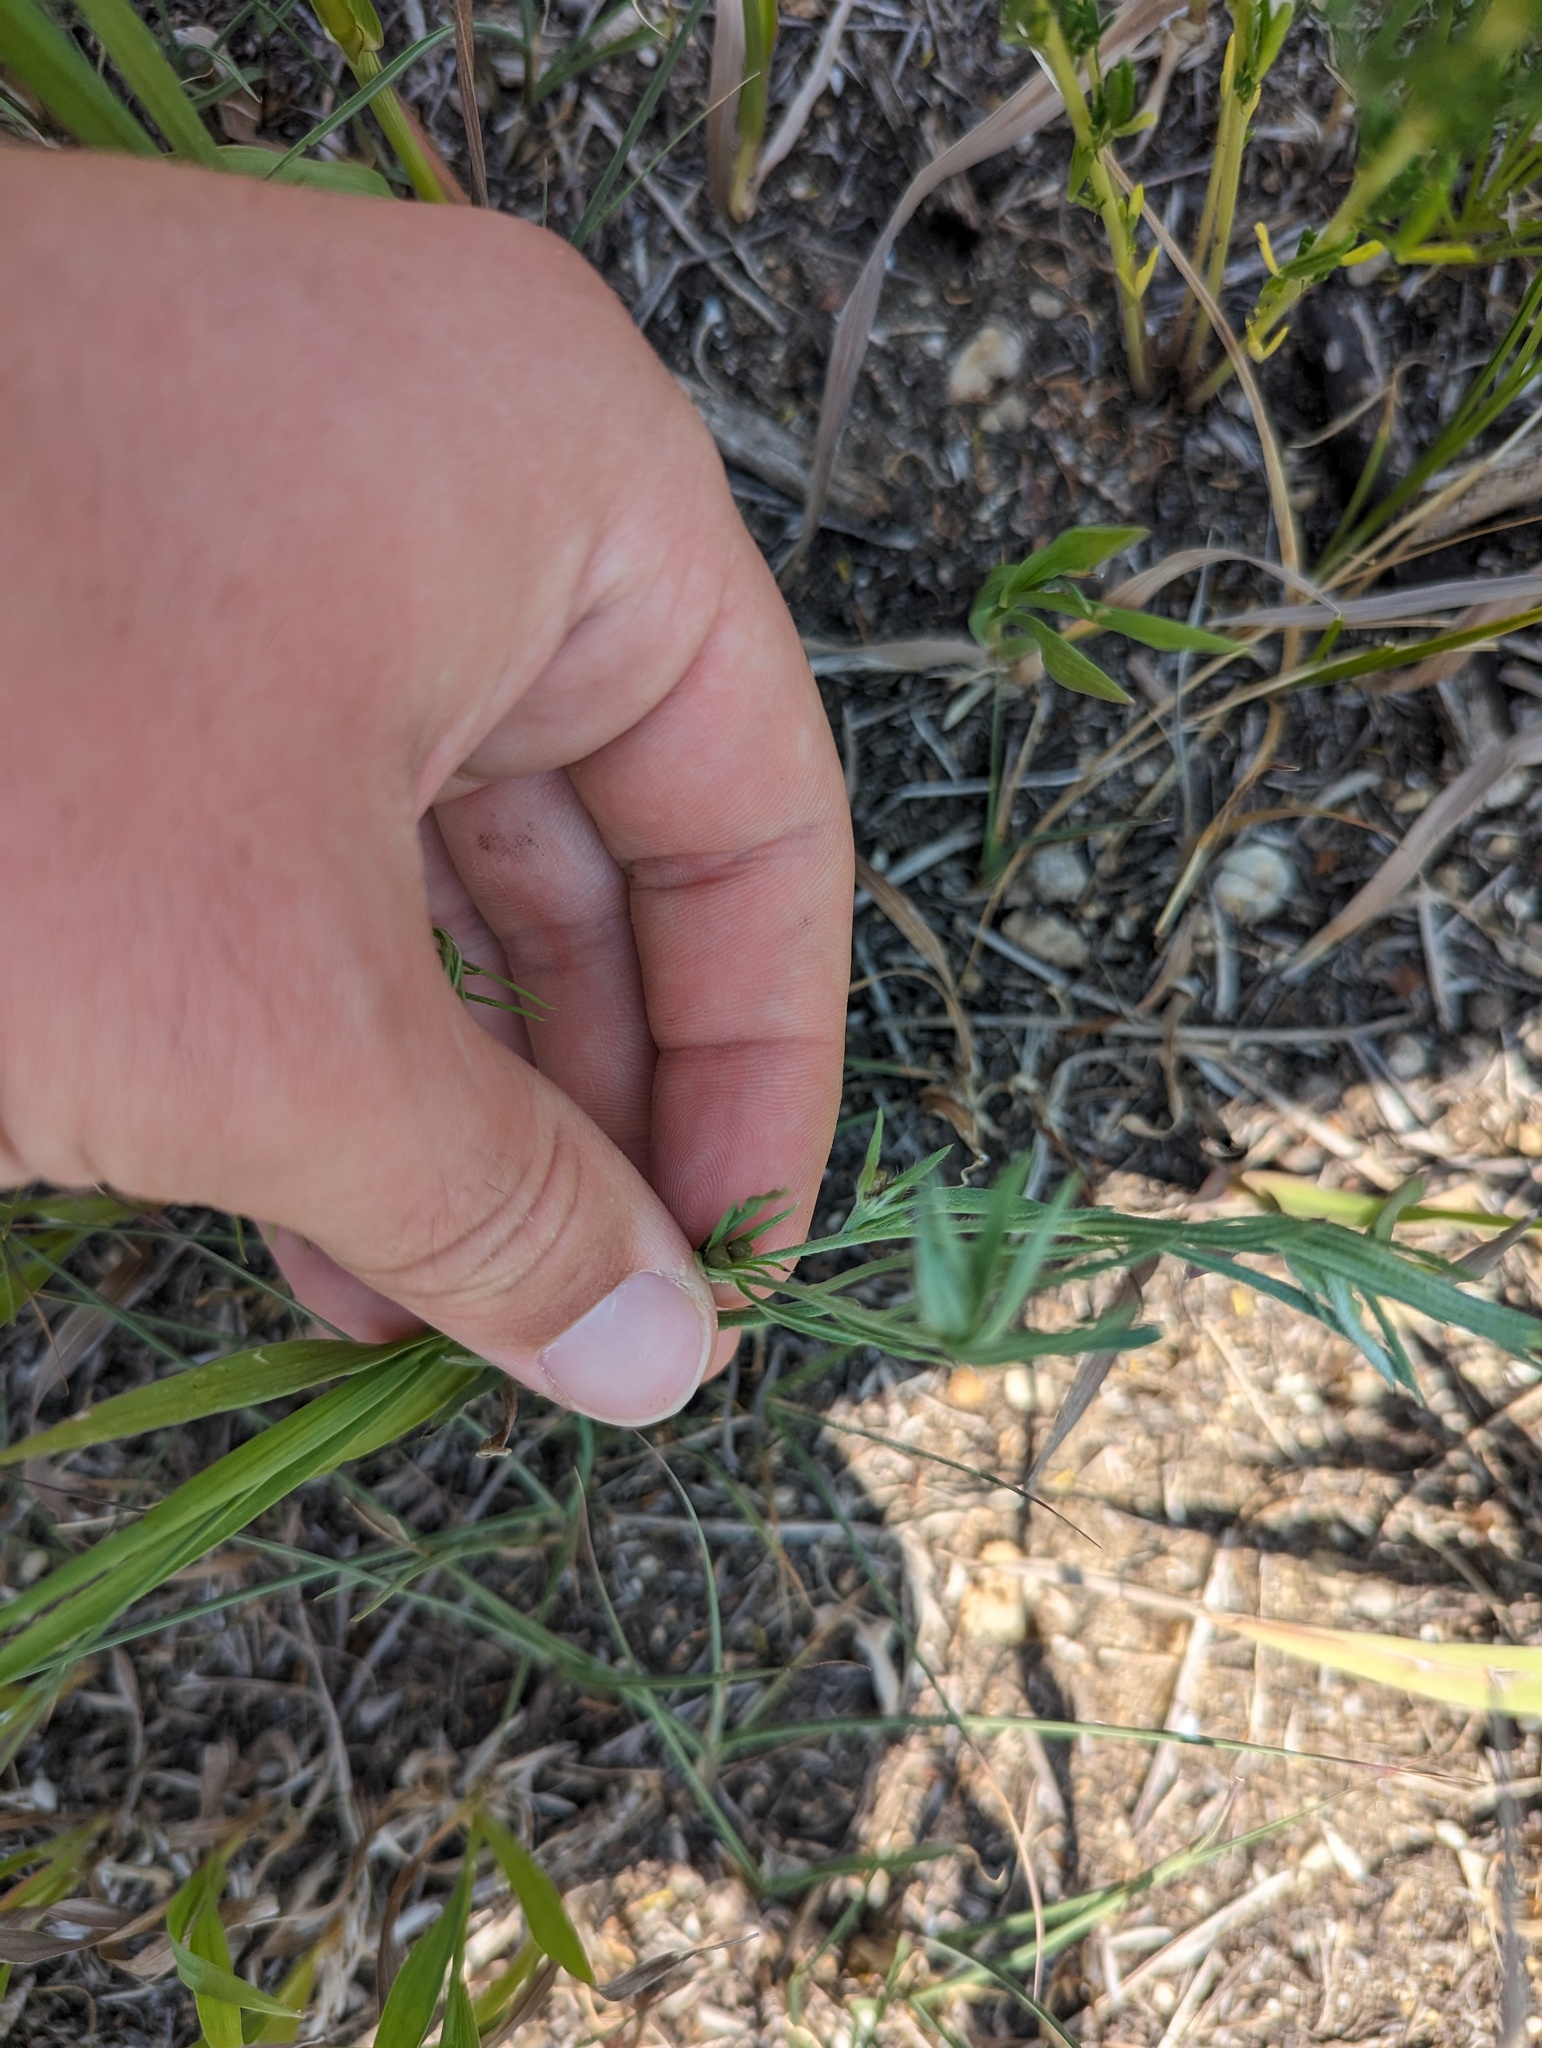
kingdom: Plantae
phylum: Tracheophyta
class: Magnoliopsida
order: Boraginales
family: Boraginaceae
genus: Lithospermum
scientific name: Lithospermum incisum
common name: Fringed gromwell
